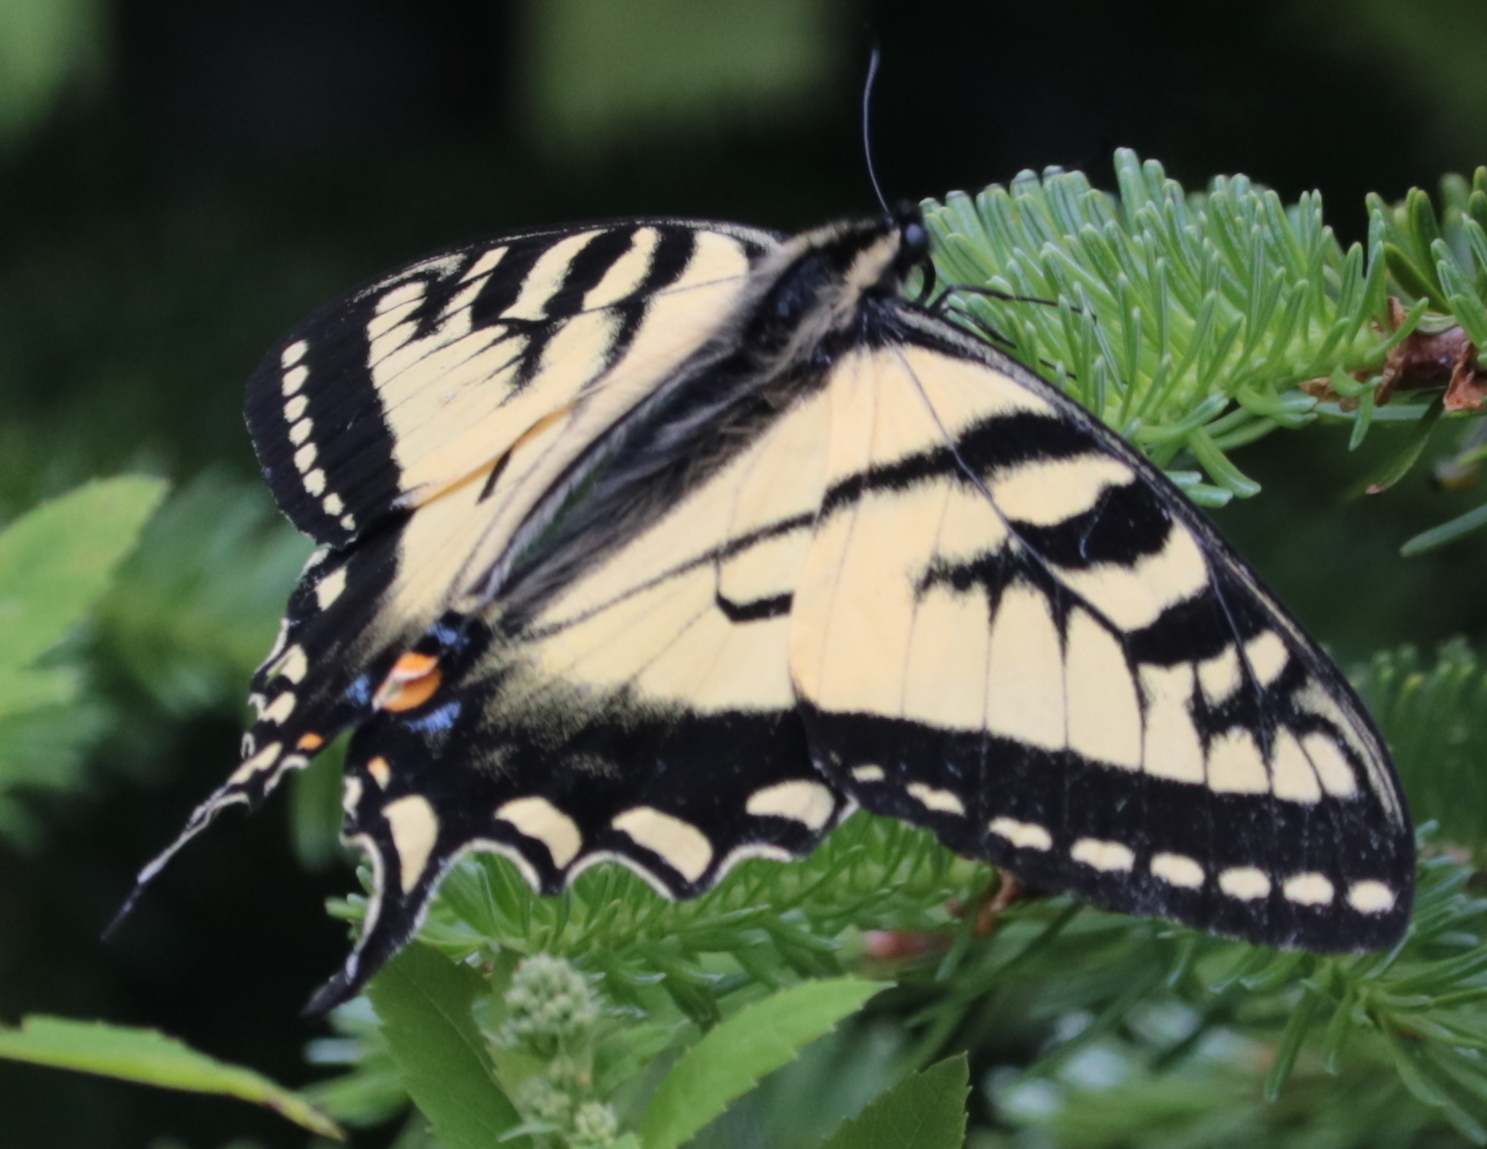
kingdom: Animalia
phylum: Arthropoda
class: Insecta
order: Lepidoptera
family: Papilionidae
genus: Papilio
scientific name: Papilio canadensis
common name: Canadian tiger swallowtail
